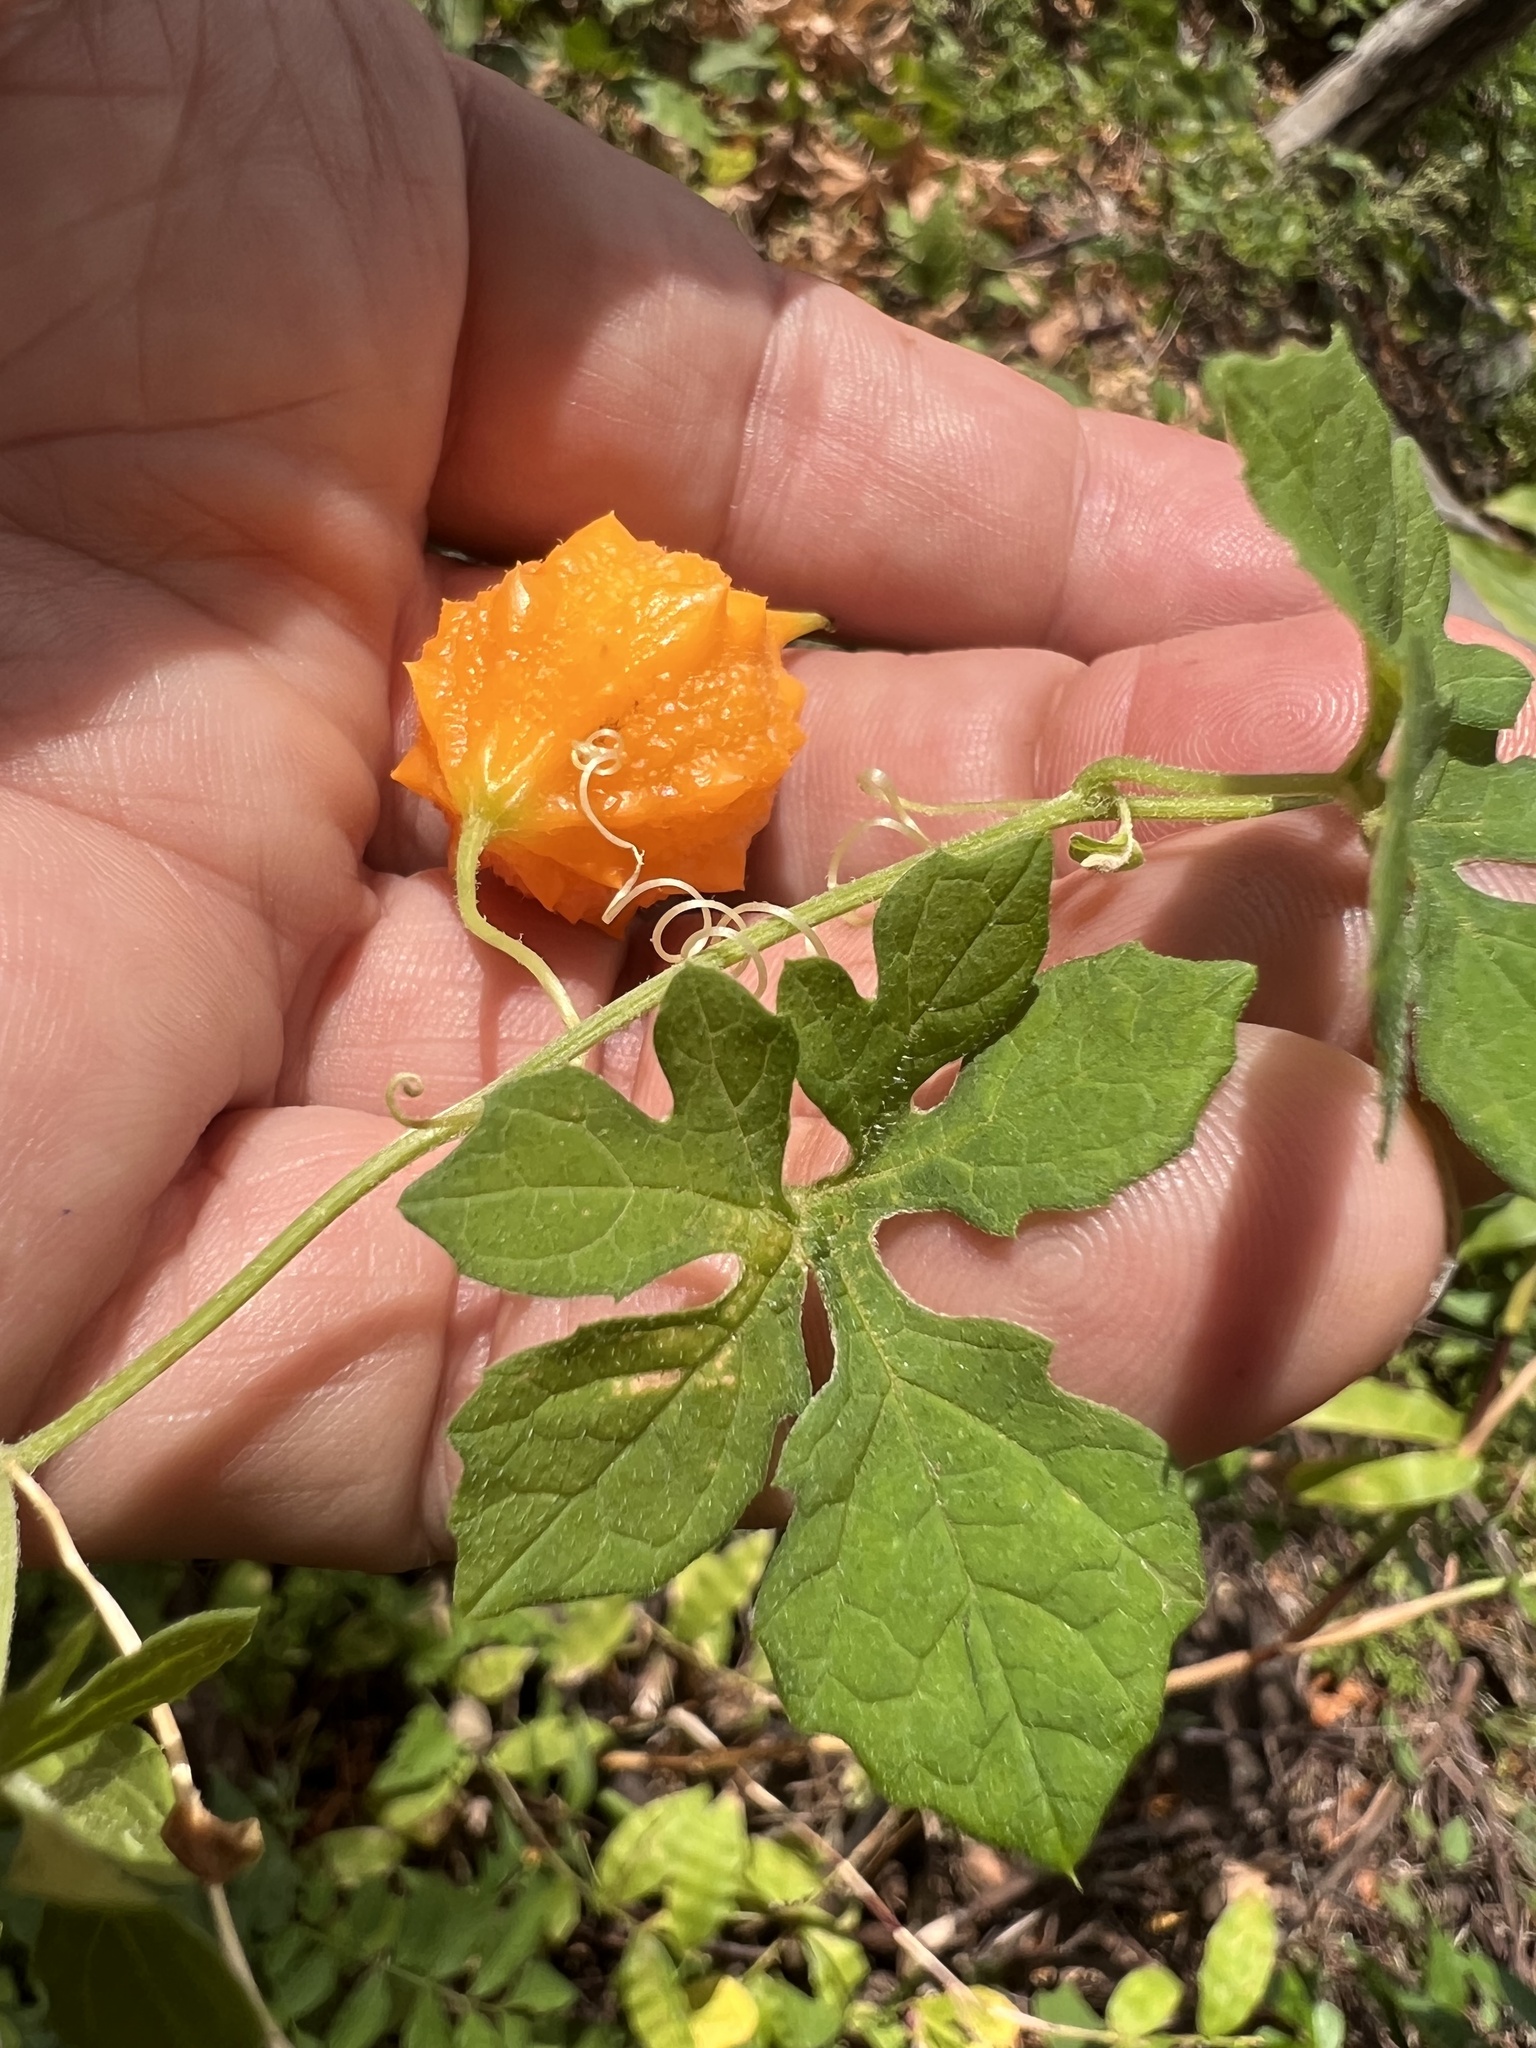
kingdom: Plantae
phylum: Tracheophyta
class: Magnoliopsida
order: Cucurbitales
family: Cucurbitaceae
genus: Momordica
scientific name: Momordica charantia
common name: Balsampear
